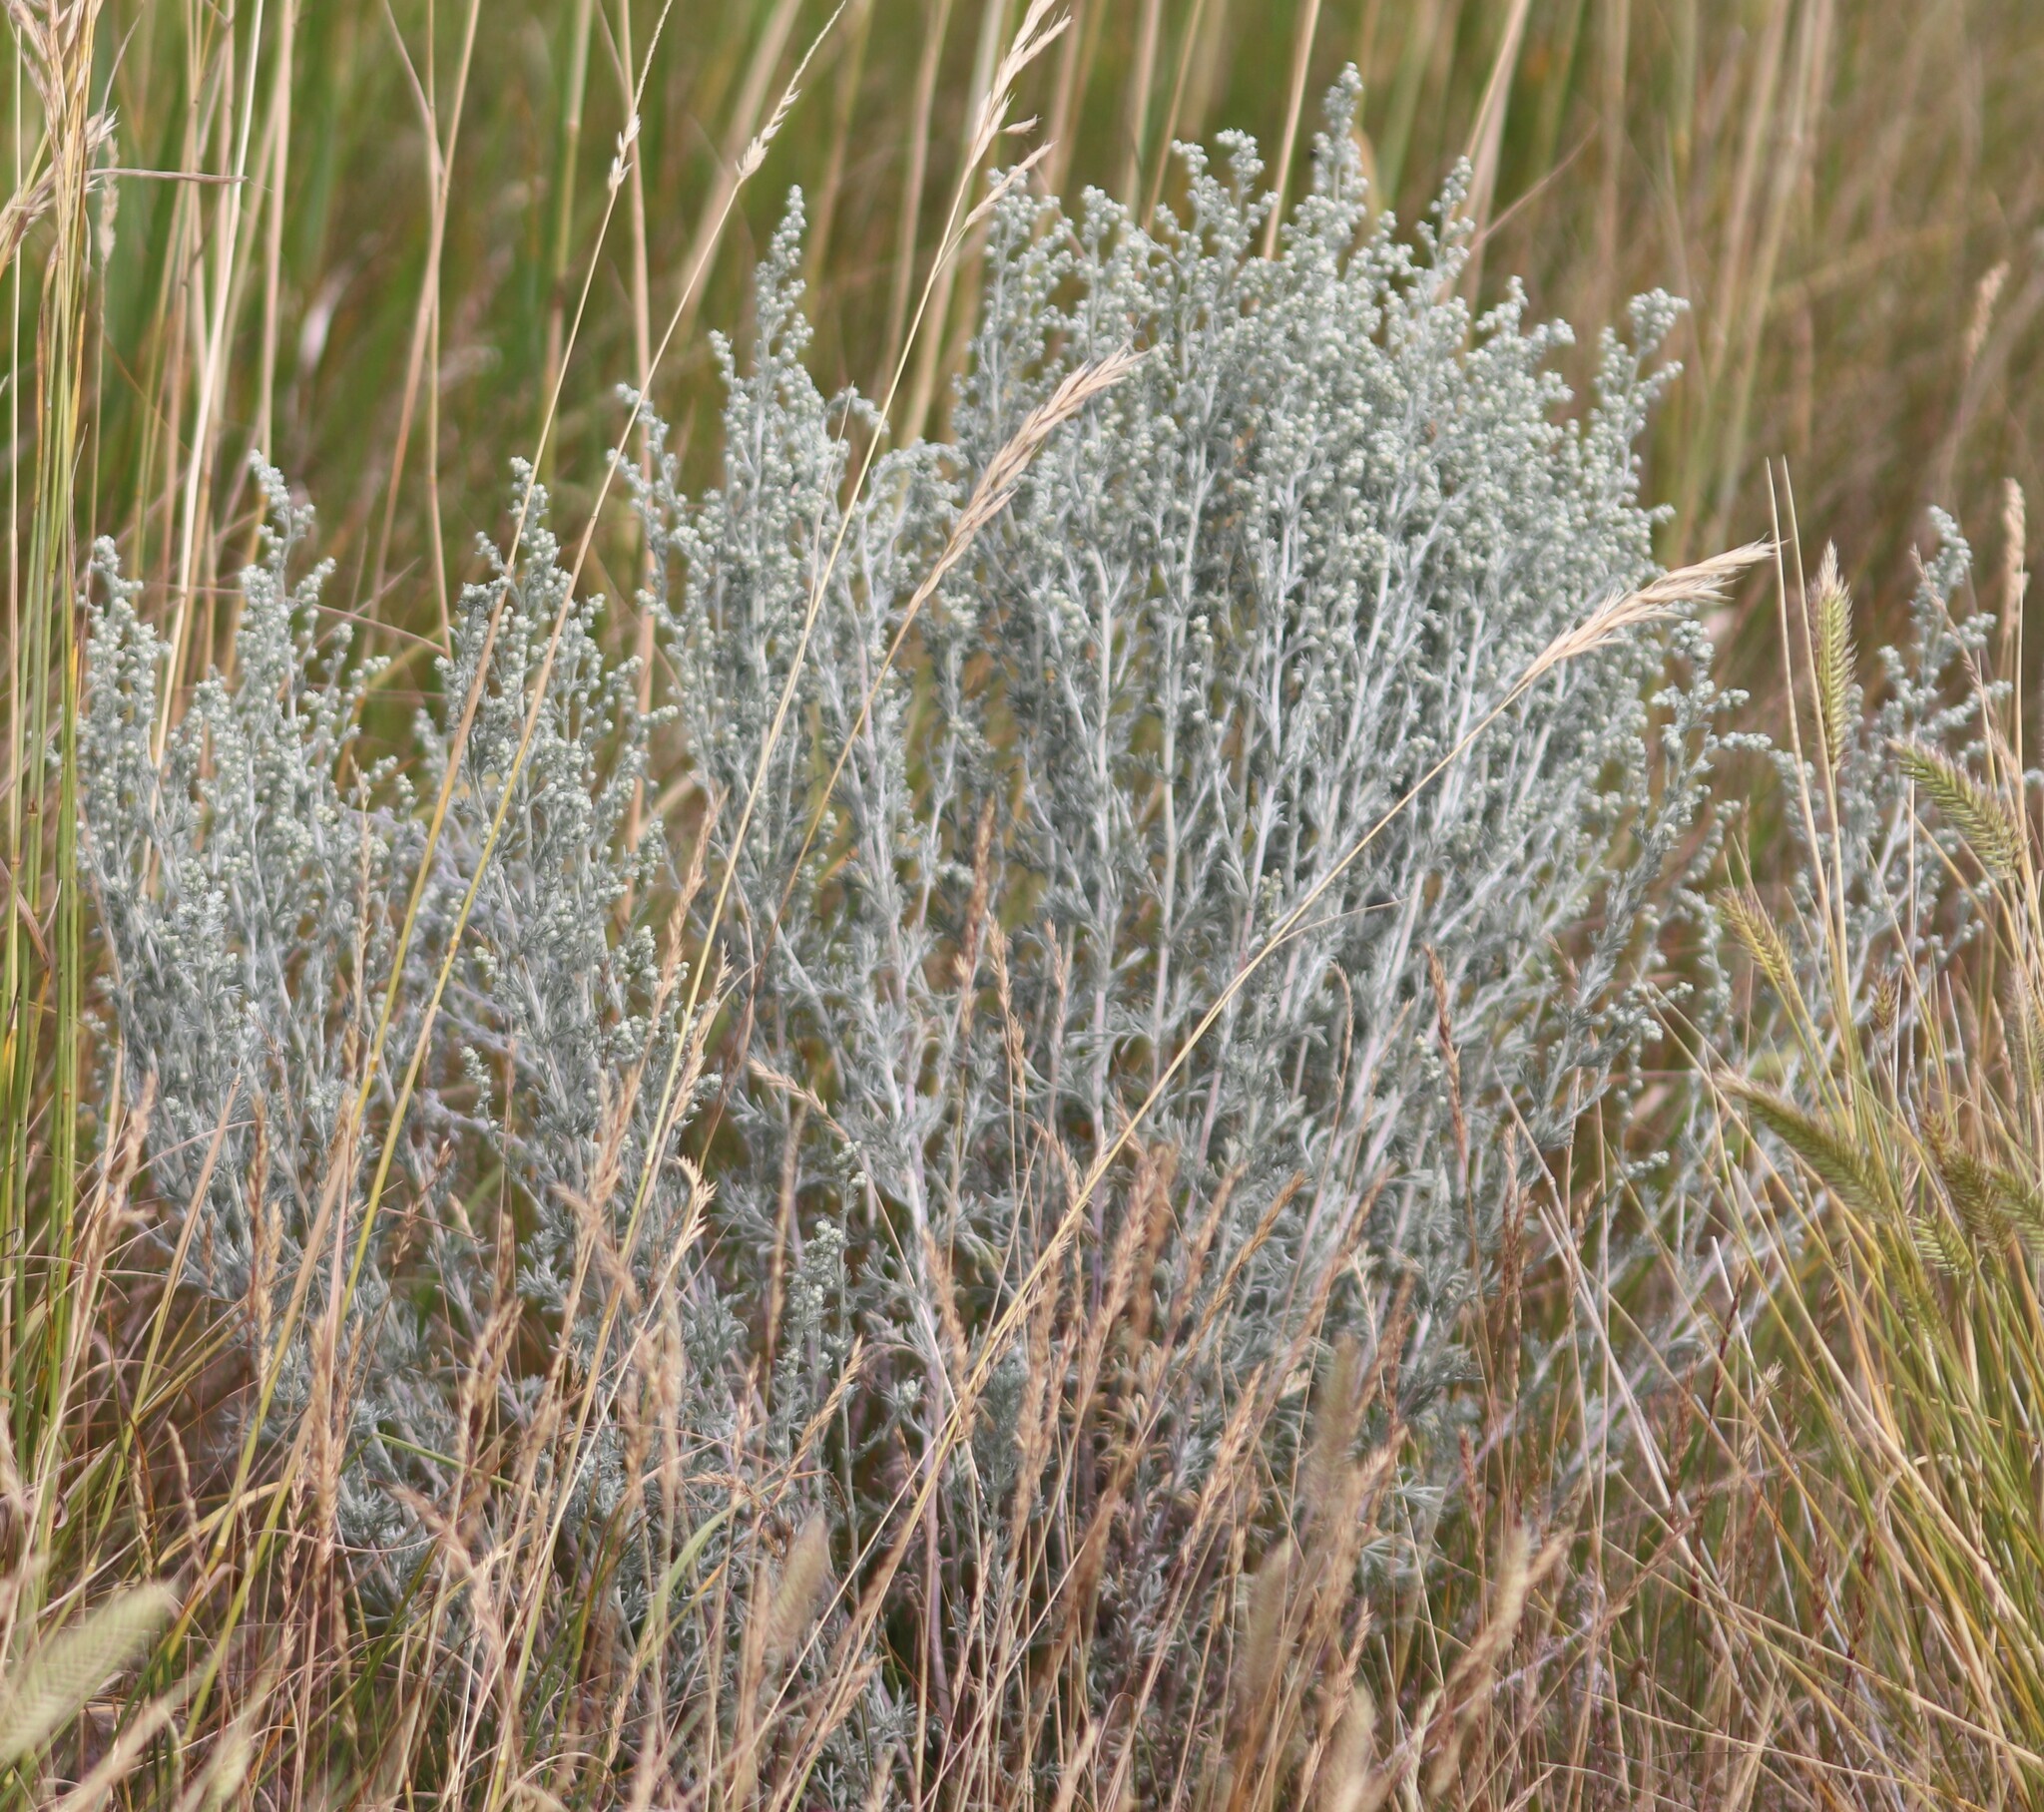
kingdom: Plantae
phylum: Tracheophyta
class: Magnoliopsida
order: Asterales
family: Asteraceae
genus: Artemisia
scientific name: Artemisia frigida
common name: Prairie sagewort
